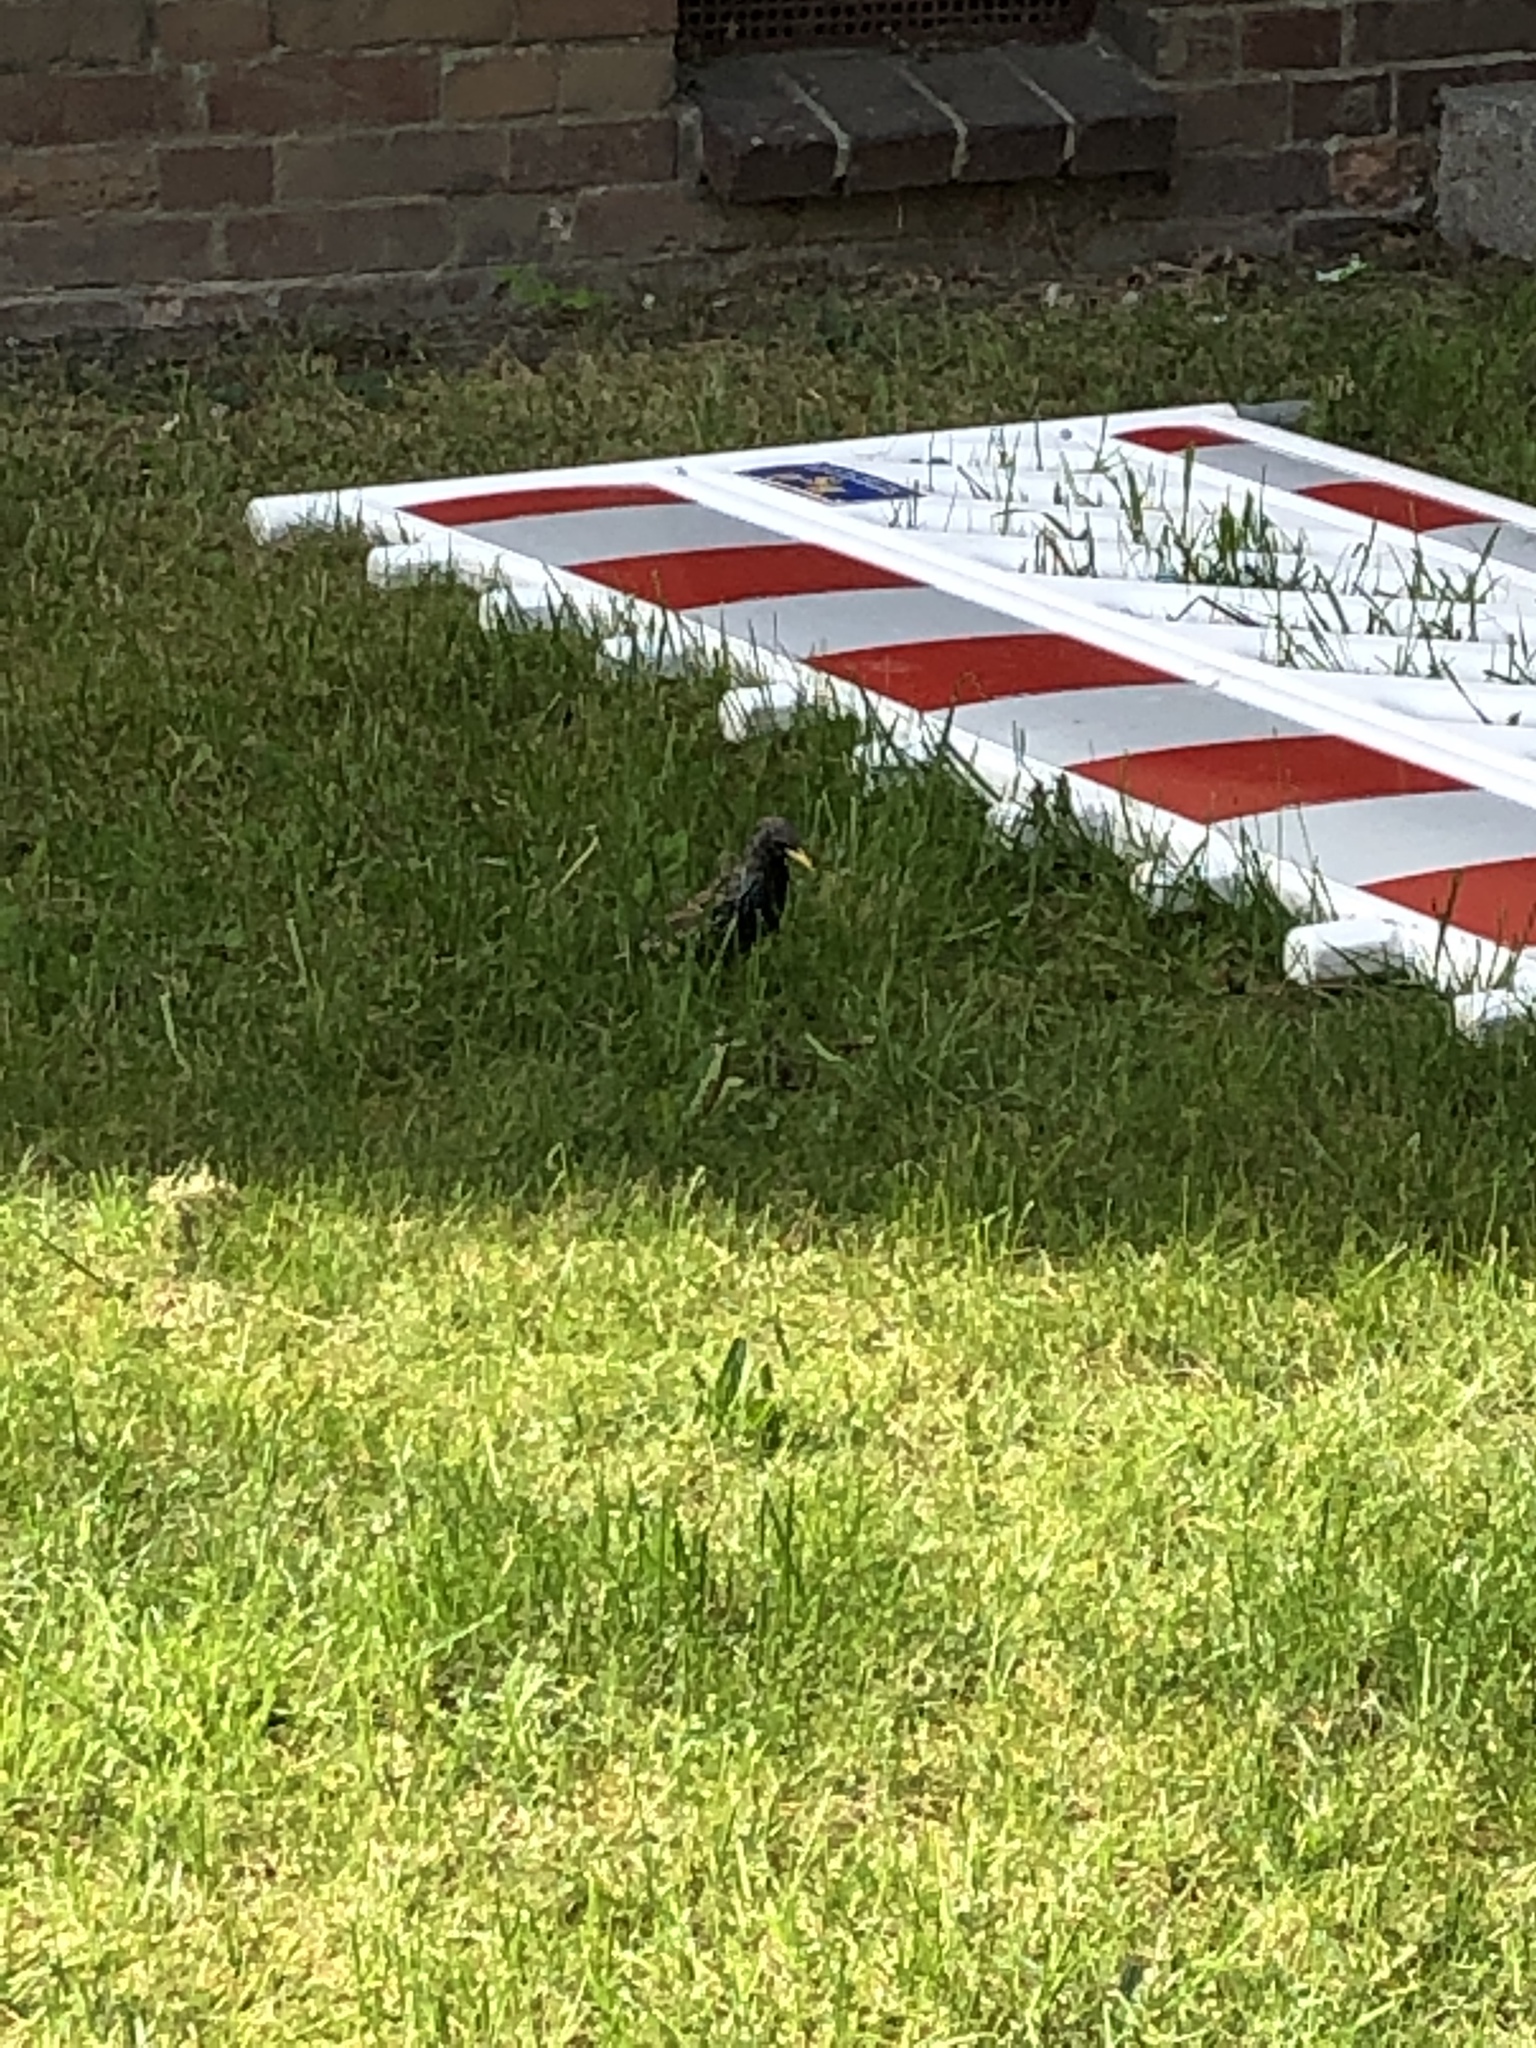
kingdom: Animalia
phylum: Chordata
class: Aves
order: Passeriformes
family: Sturnidae
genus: Sturnus
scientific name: Sturnus vulgaris
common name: Common starling
